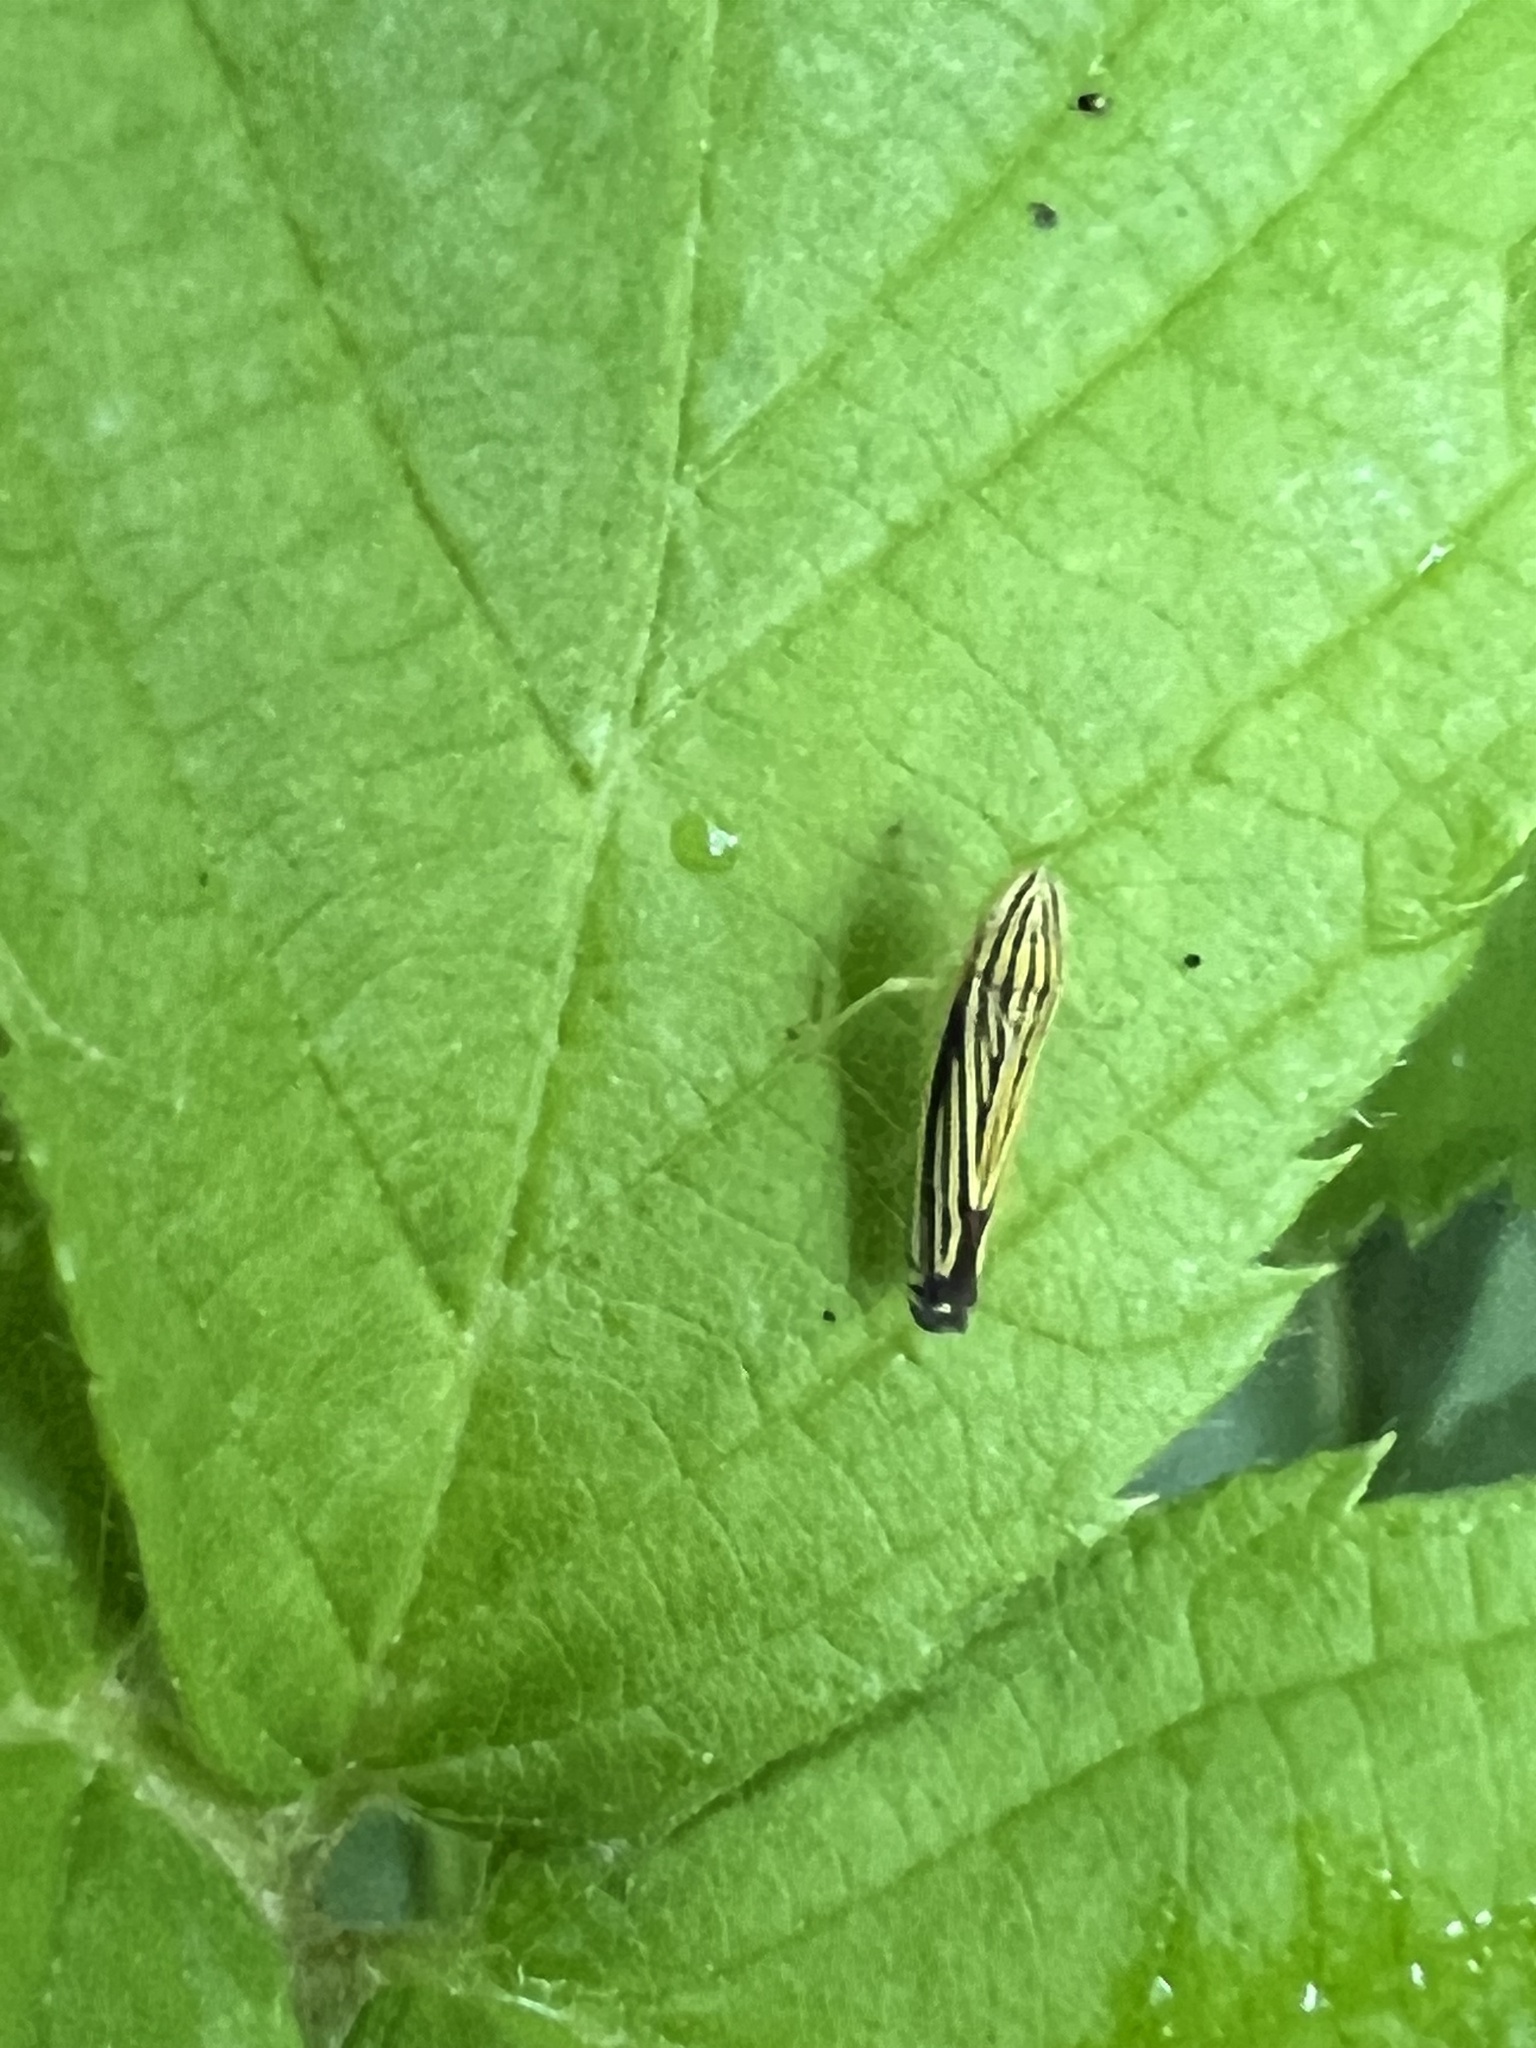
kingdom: Animalia
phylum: Arthropoda
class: Insecta
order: Hemiptera
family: Cicadellidae
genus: Sibovia
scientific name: Sibovia occatoria
